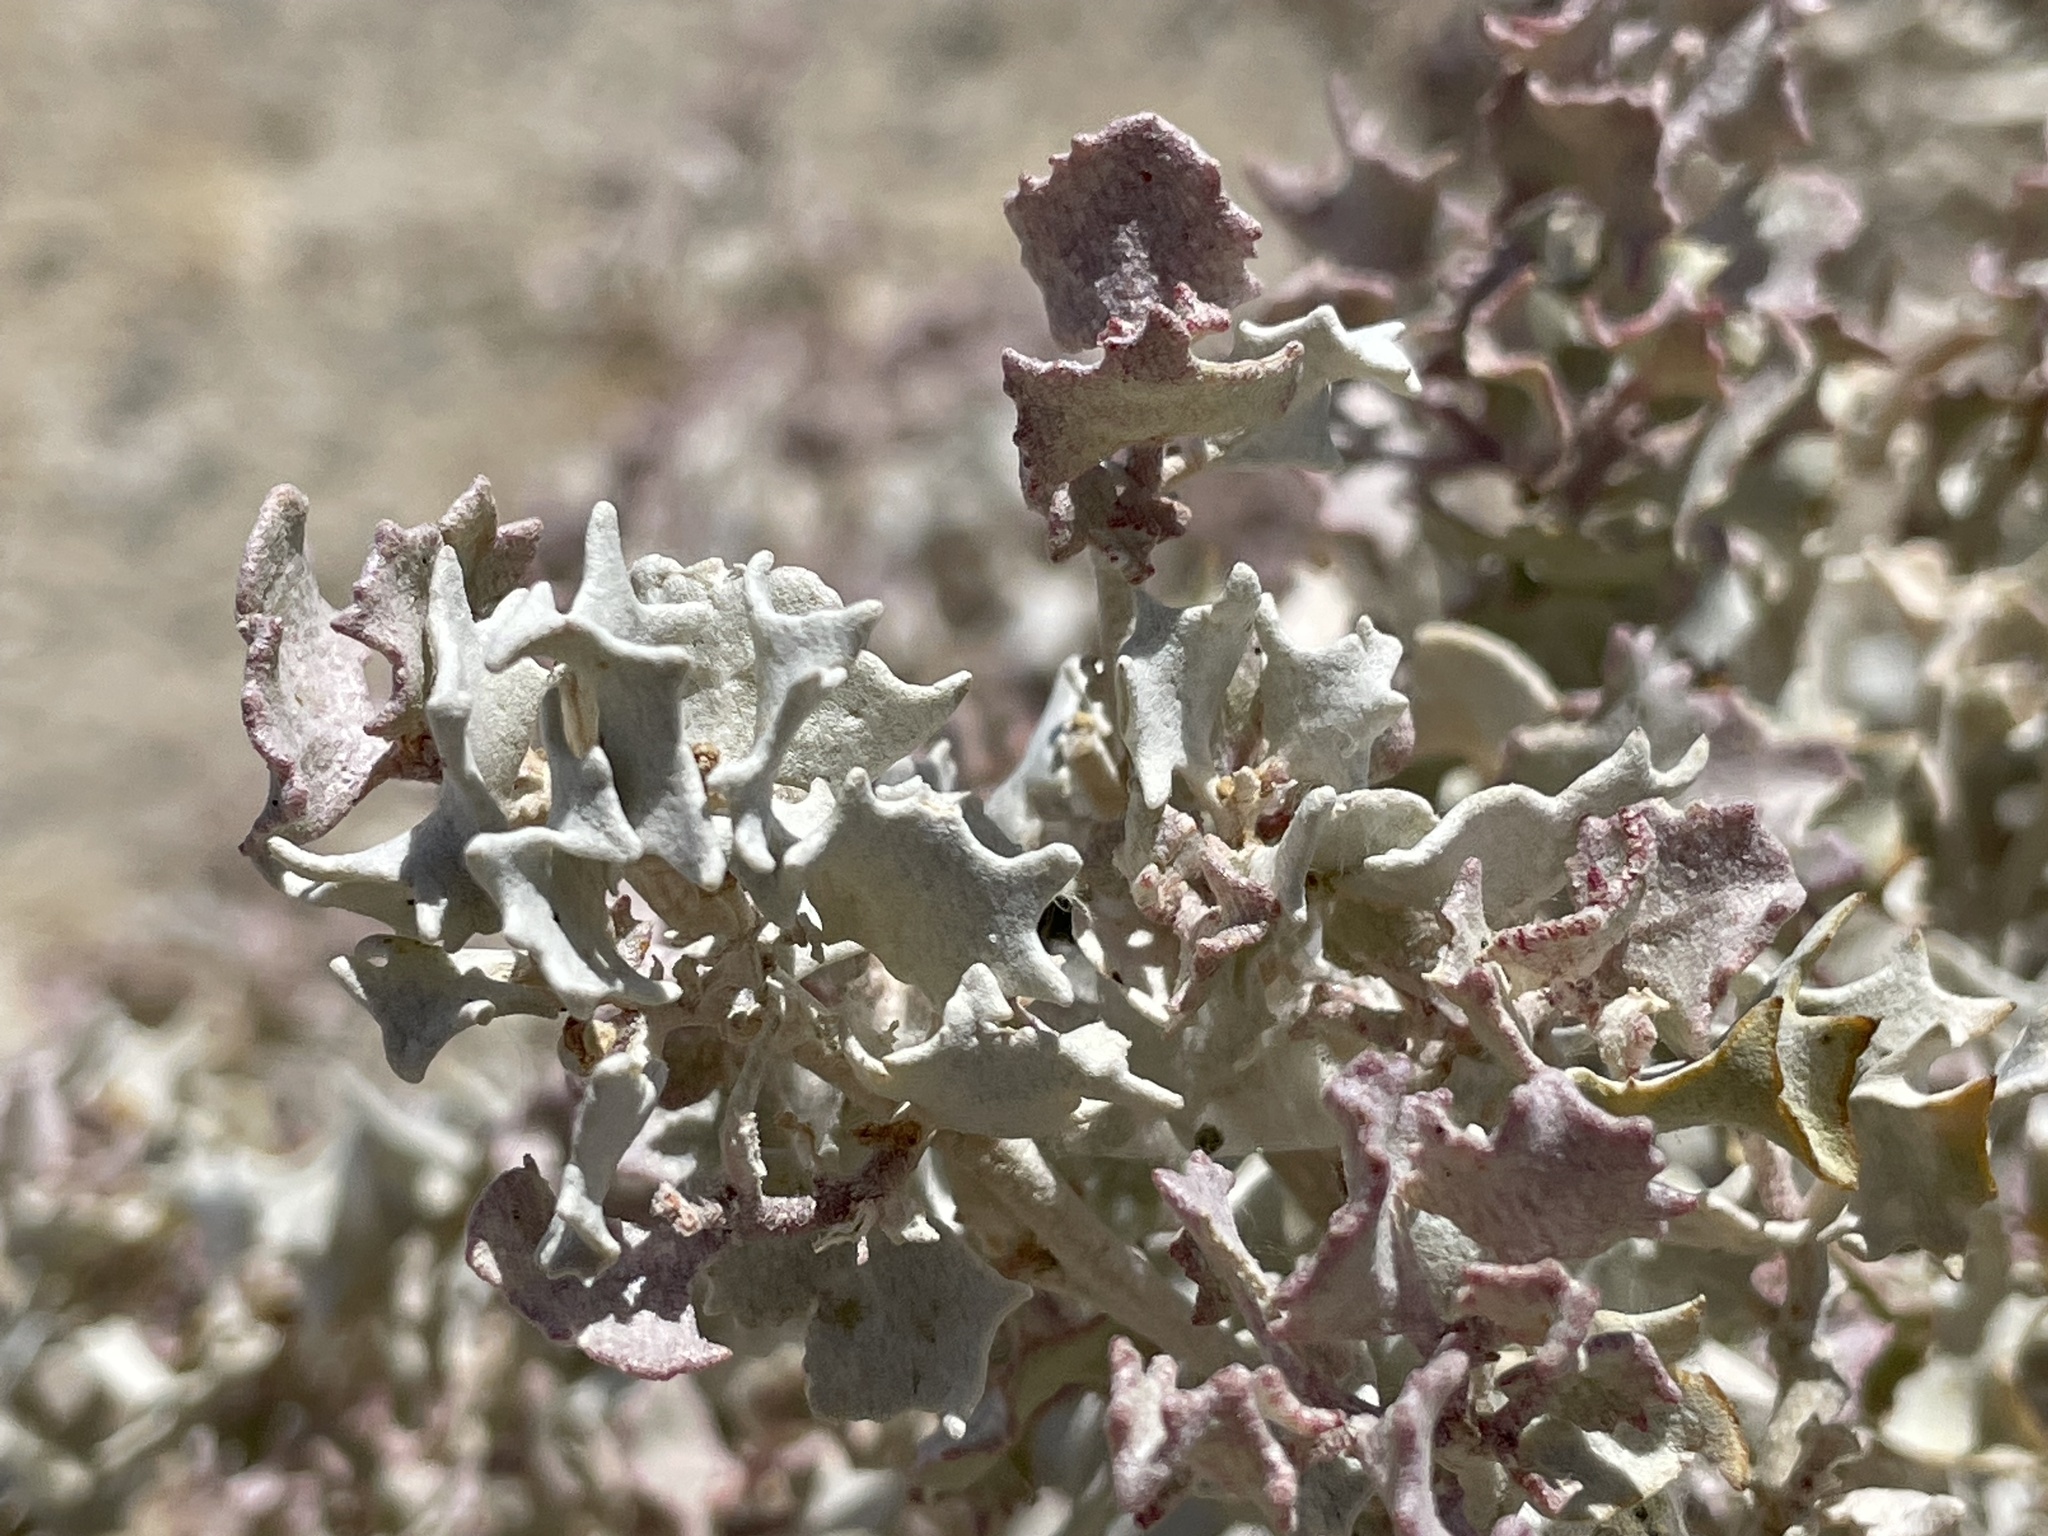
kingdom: Plantae
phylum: Tracheophyta
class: Magnoliopsida
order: Caryophyllales
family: Amaranthaceae
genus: Atriplex
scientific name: Atriplex hymenelytra
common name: Desert-holly
